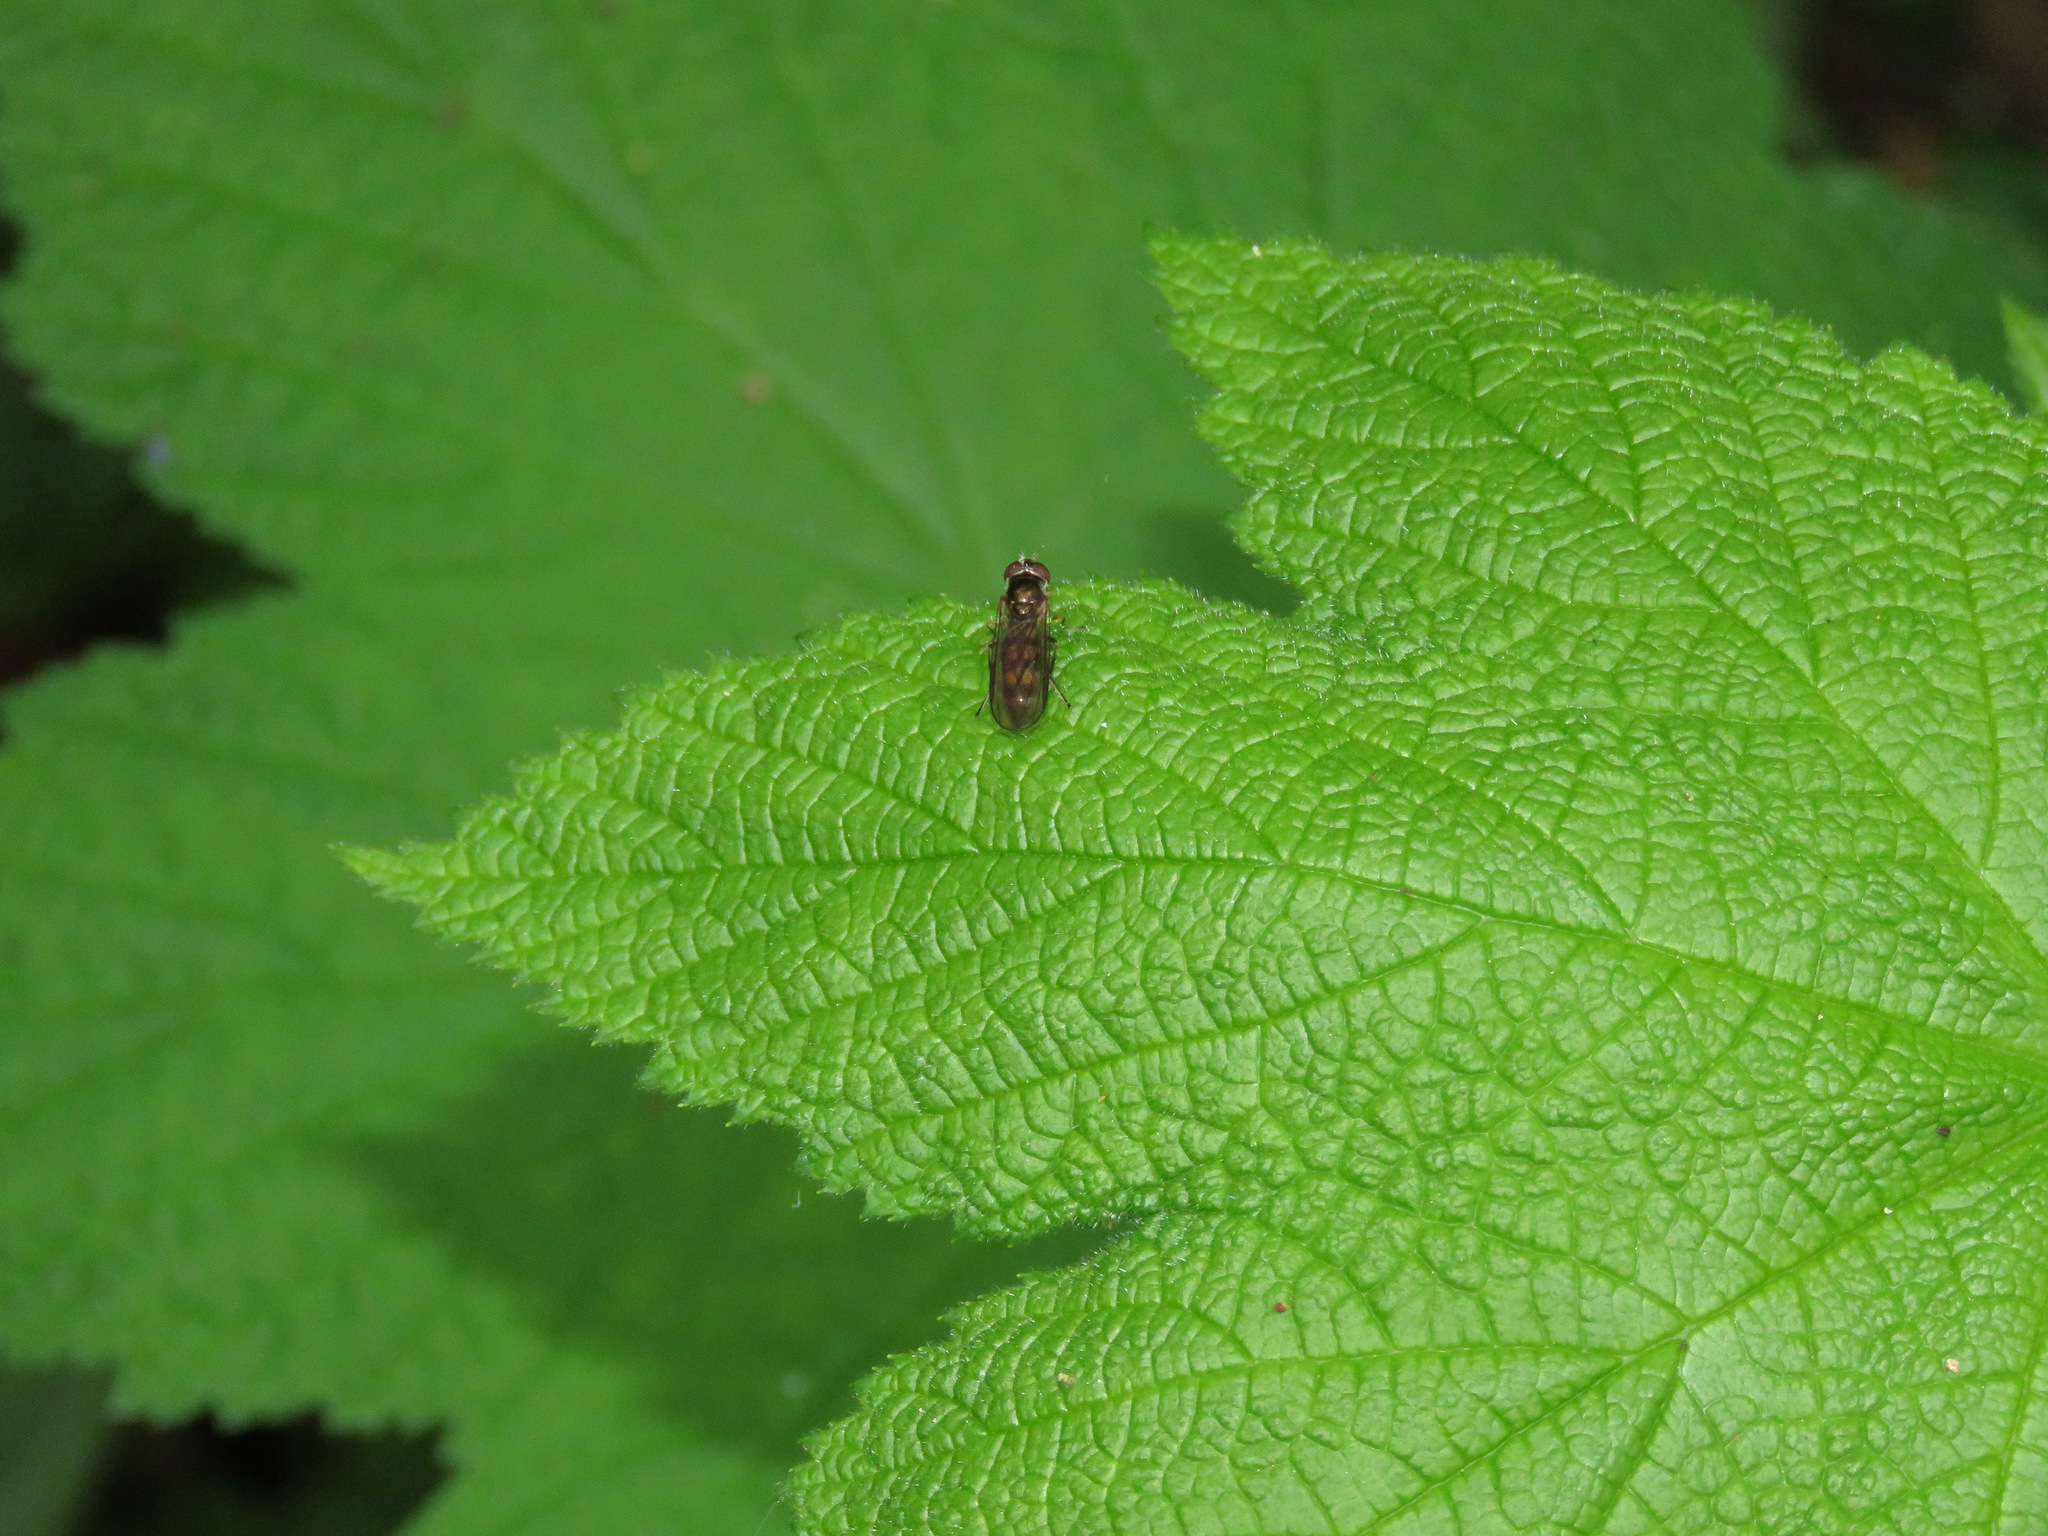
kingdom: Animalia
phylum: Arthropoda
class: Insecta
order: Diptera
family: Syrphidae
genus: Melanostoma
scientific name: Melanostoma mellina
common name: Hover fly
